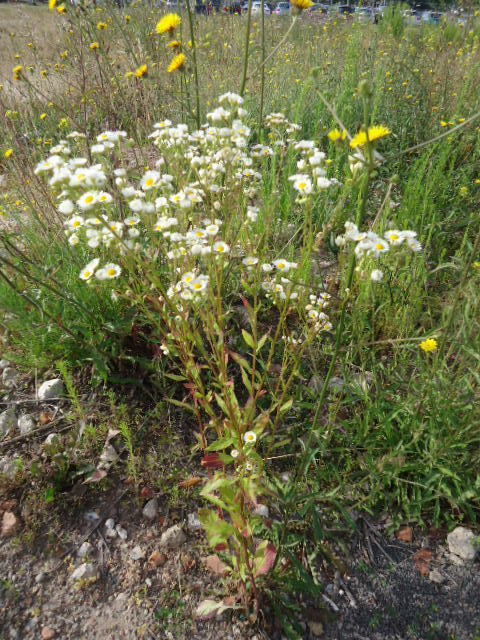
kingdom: Plantae
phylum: Tracheophyta
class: Magnoliopsida
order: Asterales
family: Asteraceae
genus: Erigeron
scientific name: Erigeron annuus
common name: Tall fleabane
